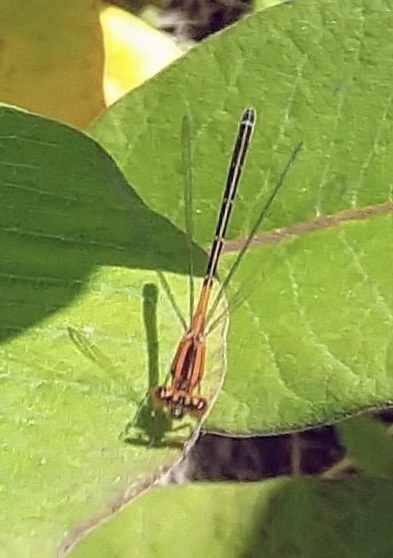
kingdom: Animalia
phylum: Arthropoda
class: Insecta
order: Odonata
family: Coenagrionidae
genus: Ischnura
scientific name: Ischnura verticalis
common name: Eastern forktail
